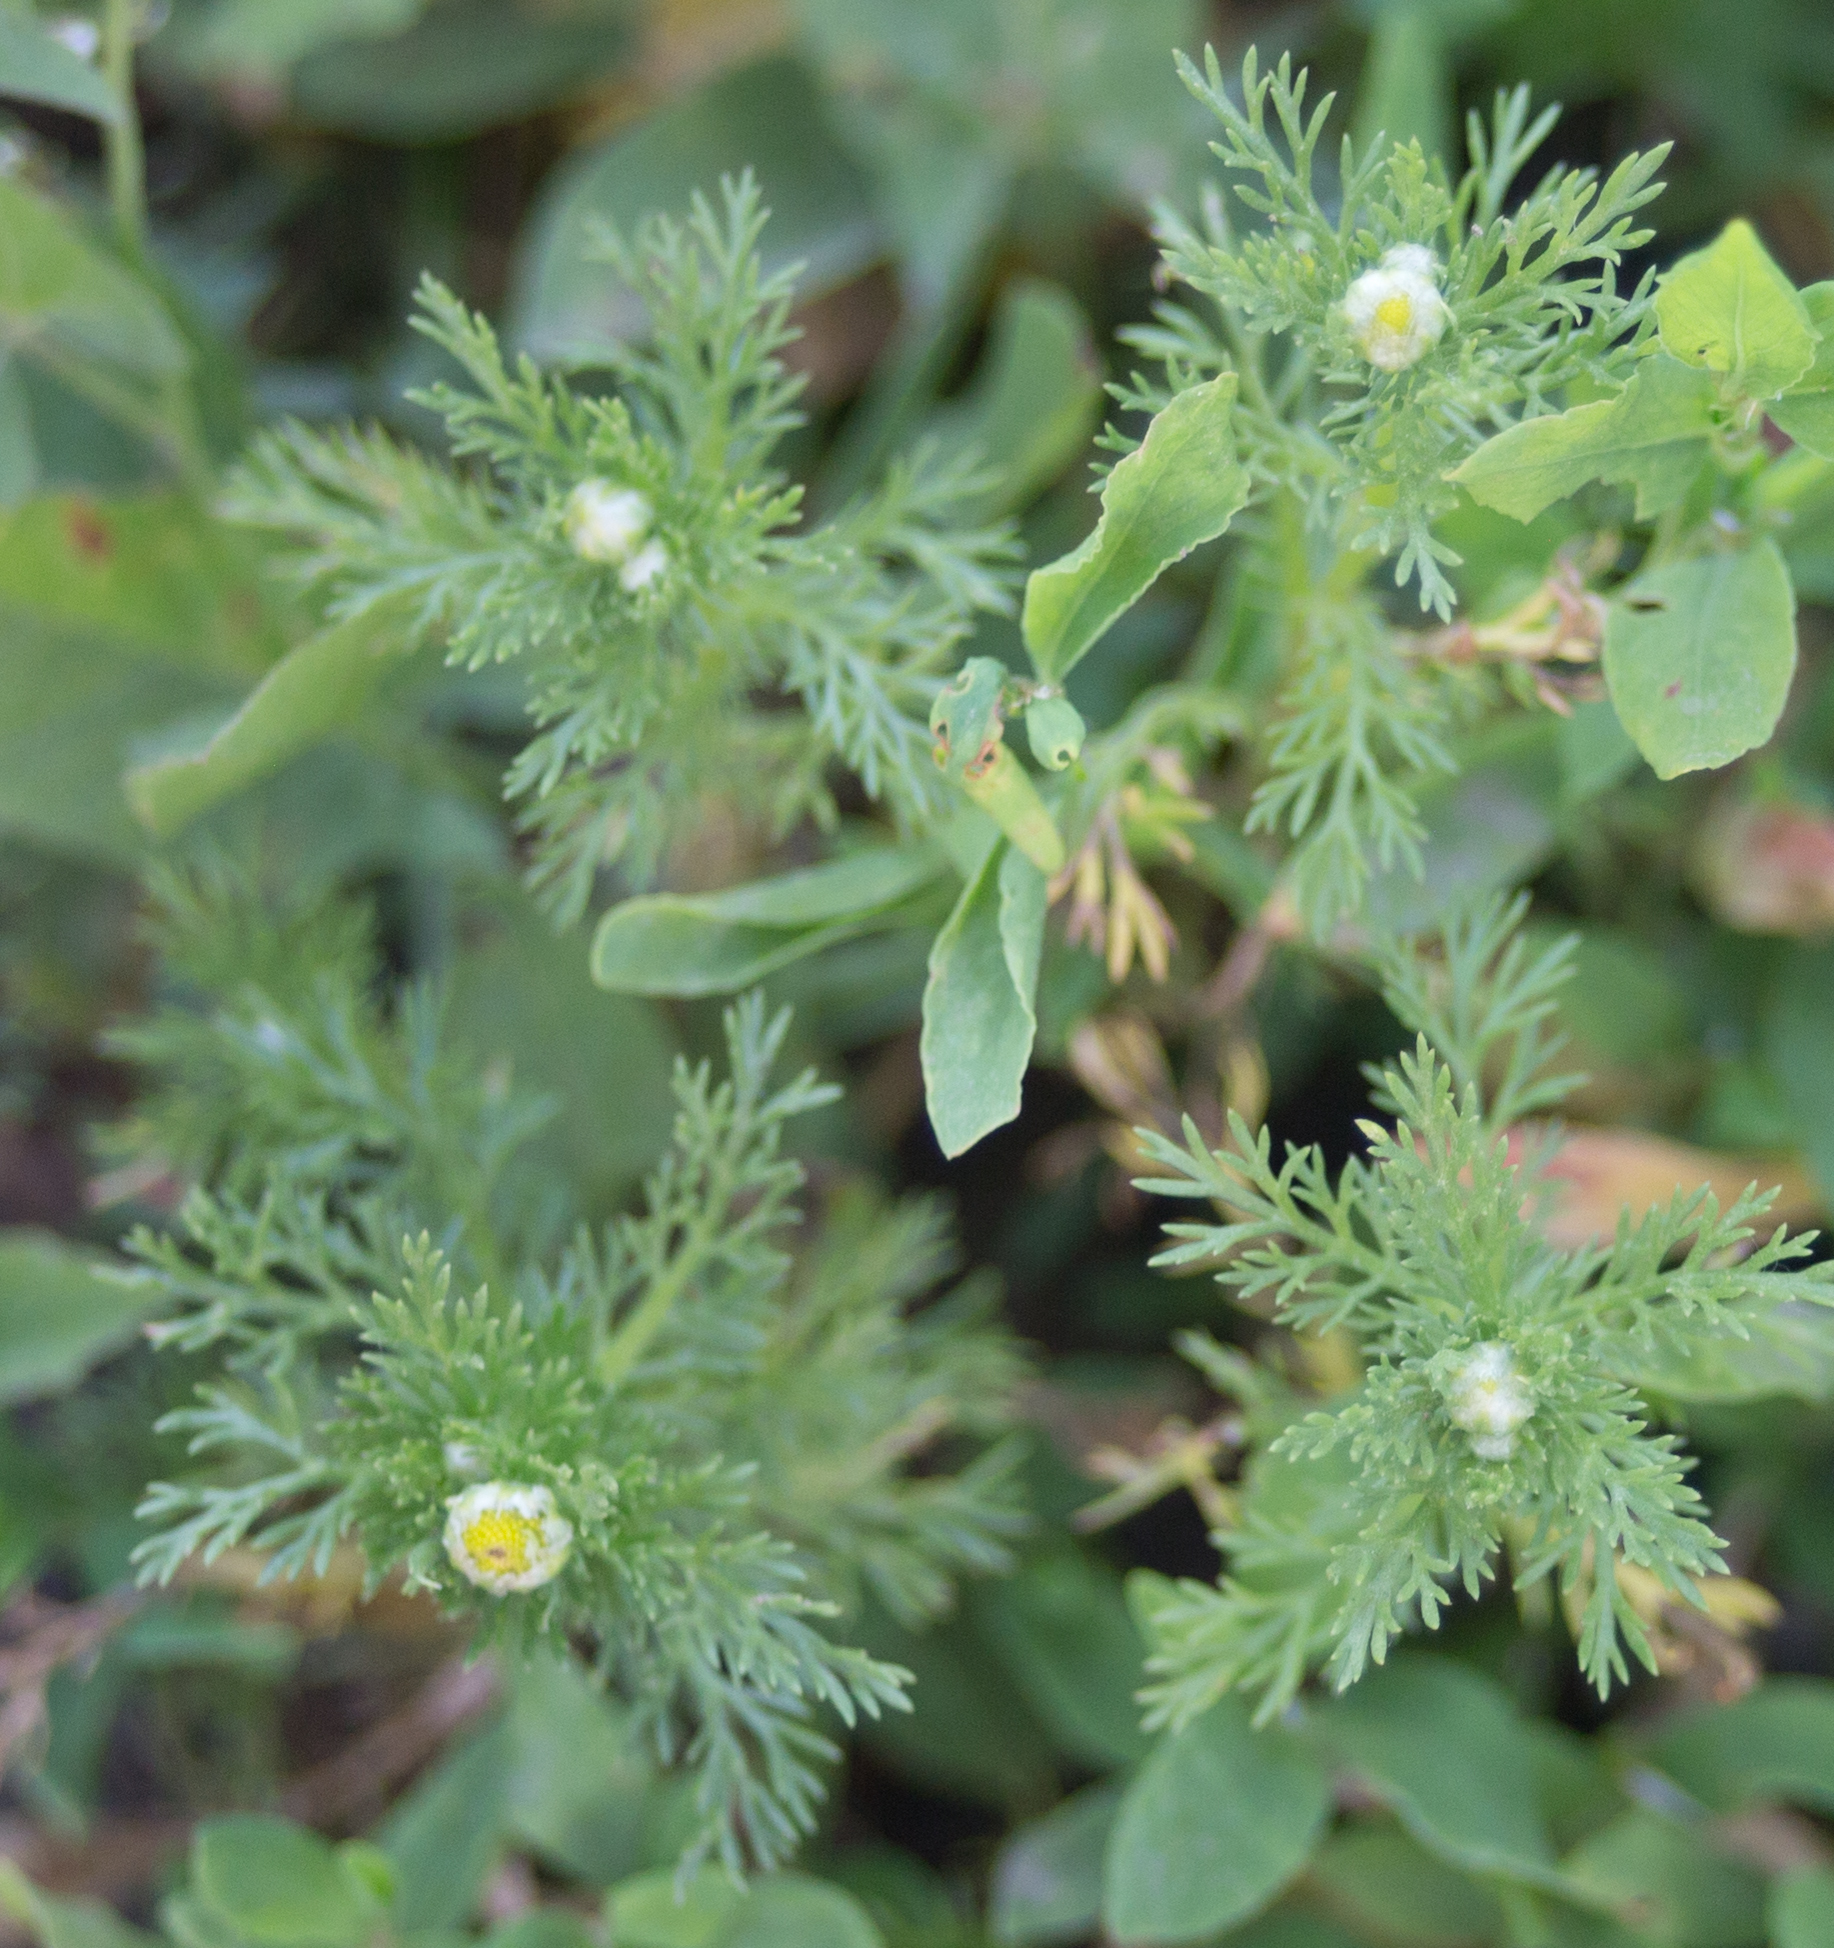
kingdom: Plantae
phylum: Tracheophyta
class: Magnoliopsida
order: Asterales
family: Asteraceae
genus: Matricaria
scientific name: Matricaria discoidea
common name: Disc mayweed
